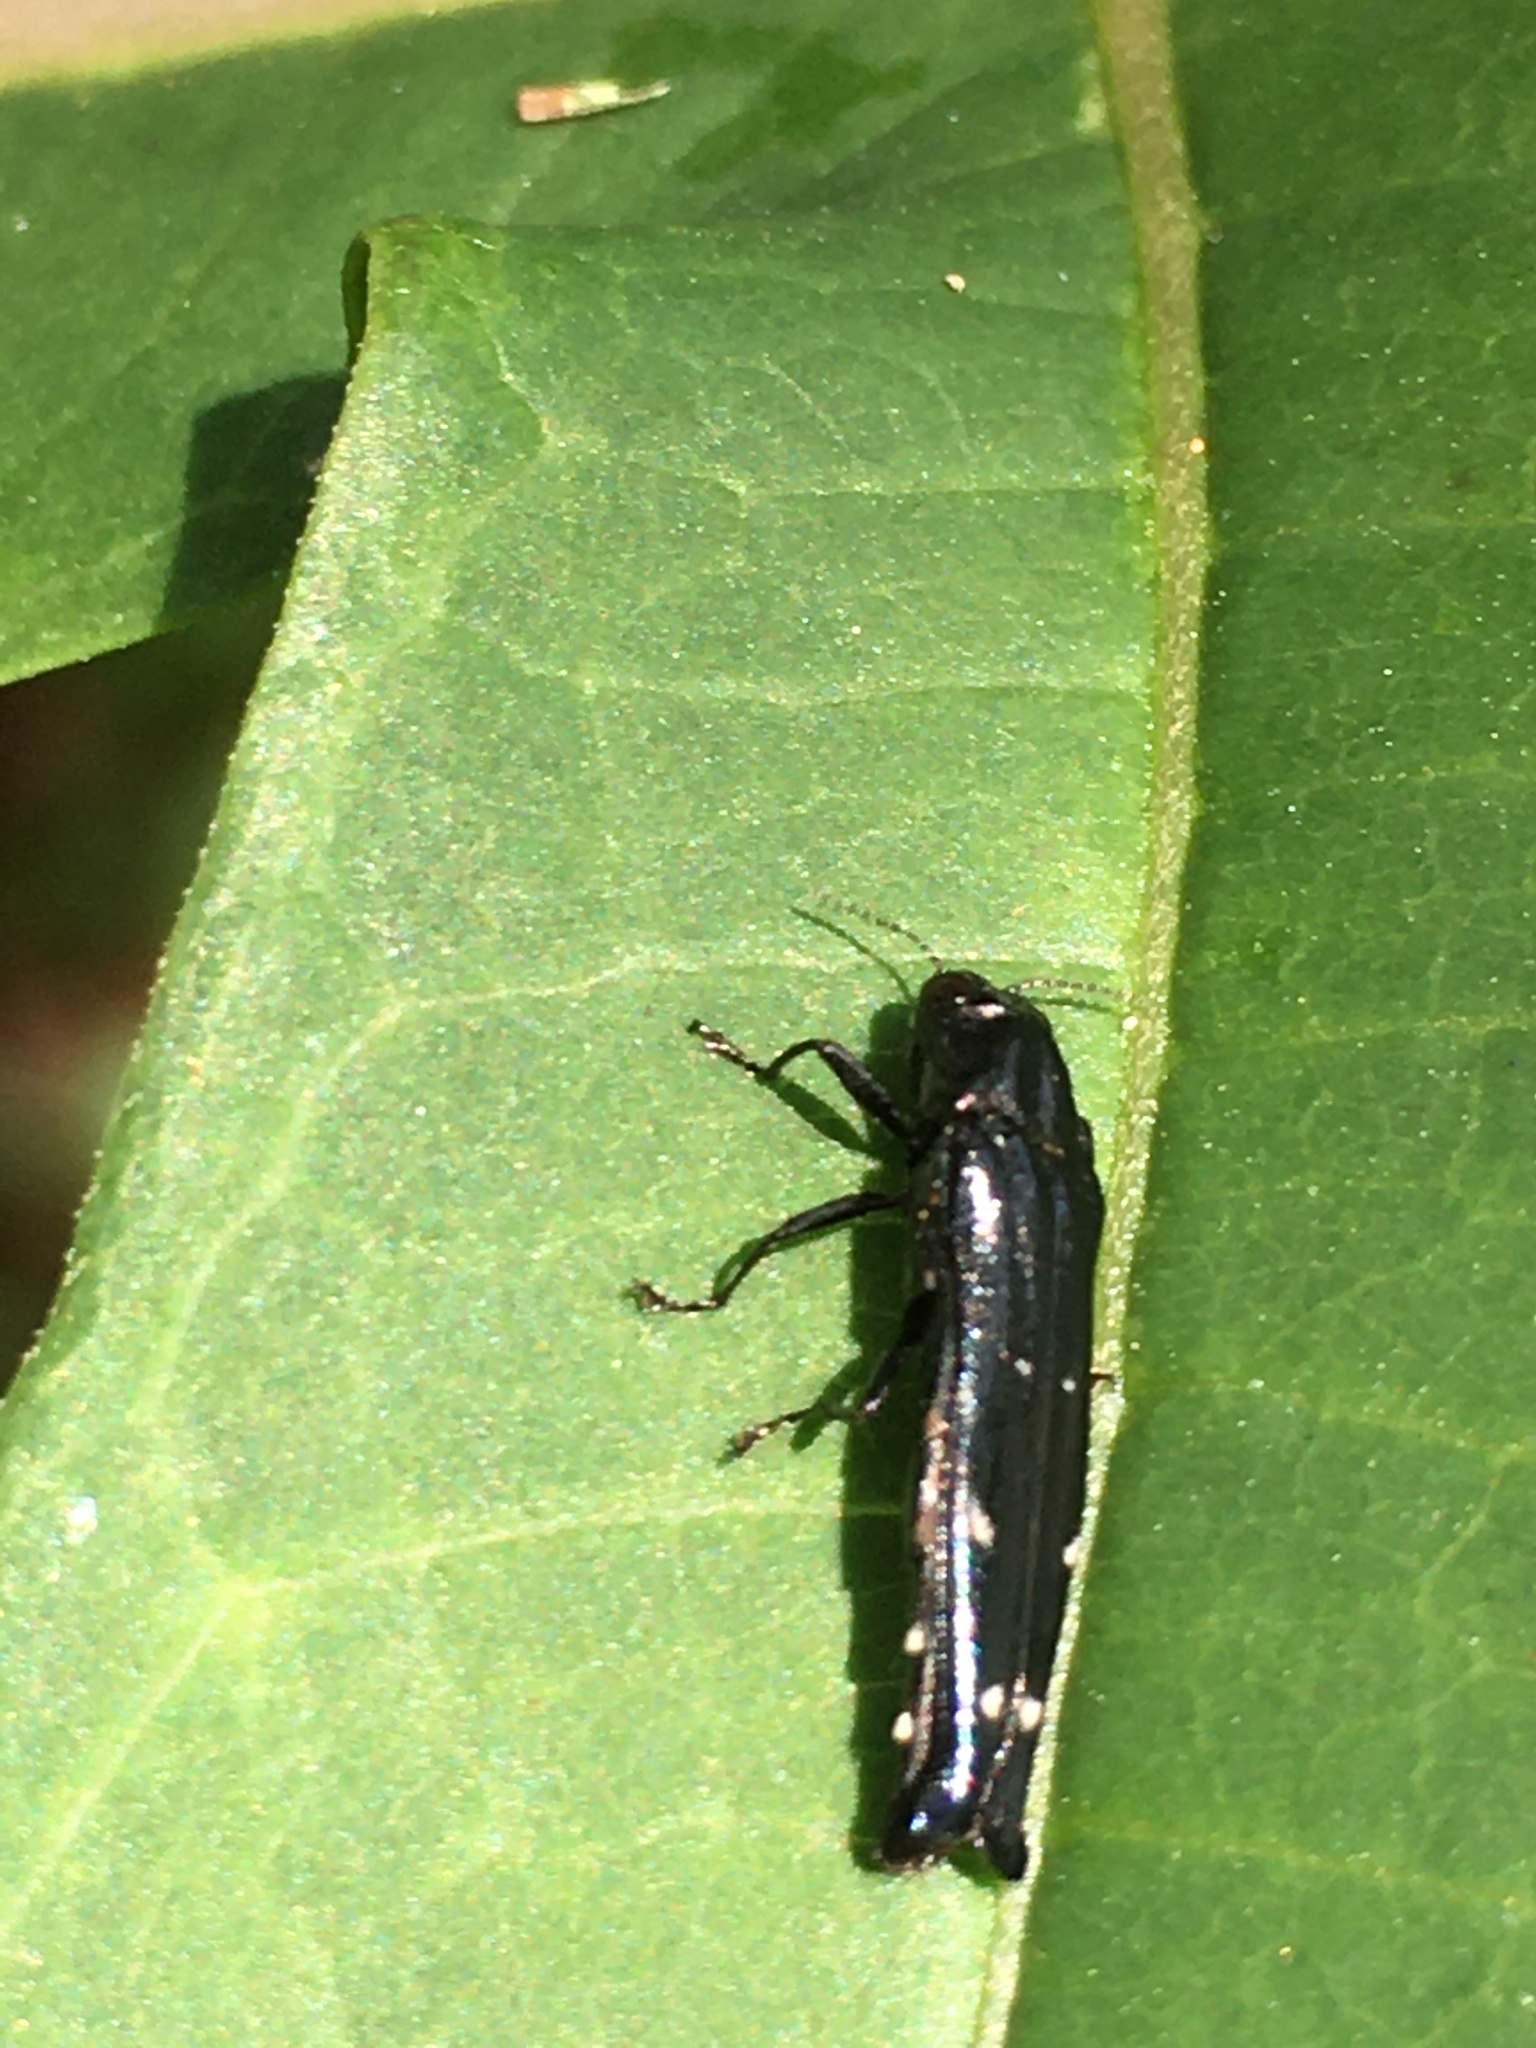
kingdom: Animalia
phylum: Arthropoda
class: Insecta
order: Coleoptera
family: Buprestidae
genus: Agrilus
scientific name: Agrilus squalus
